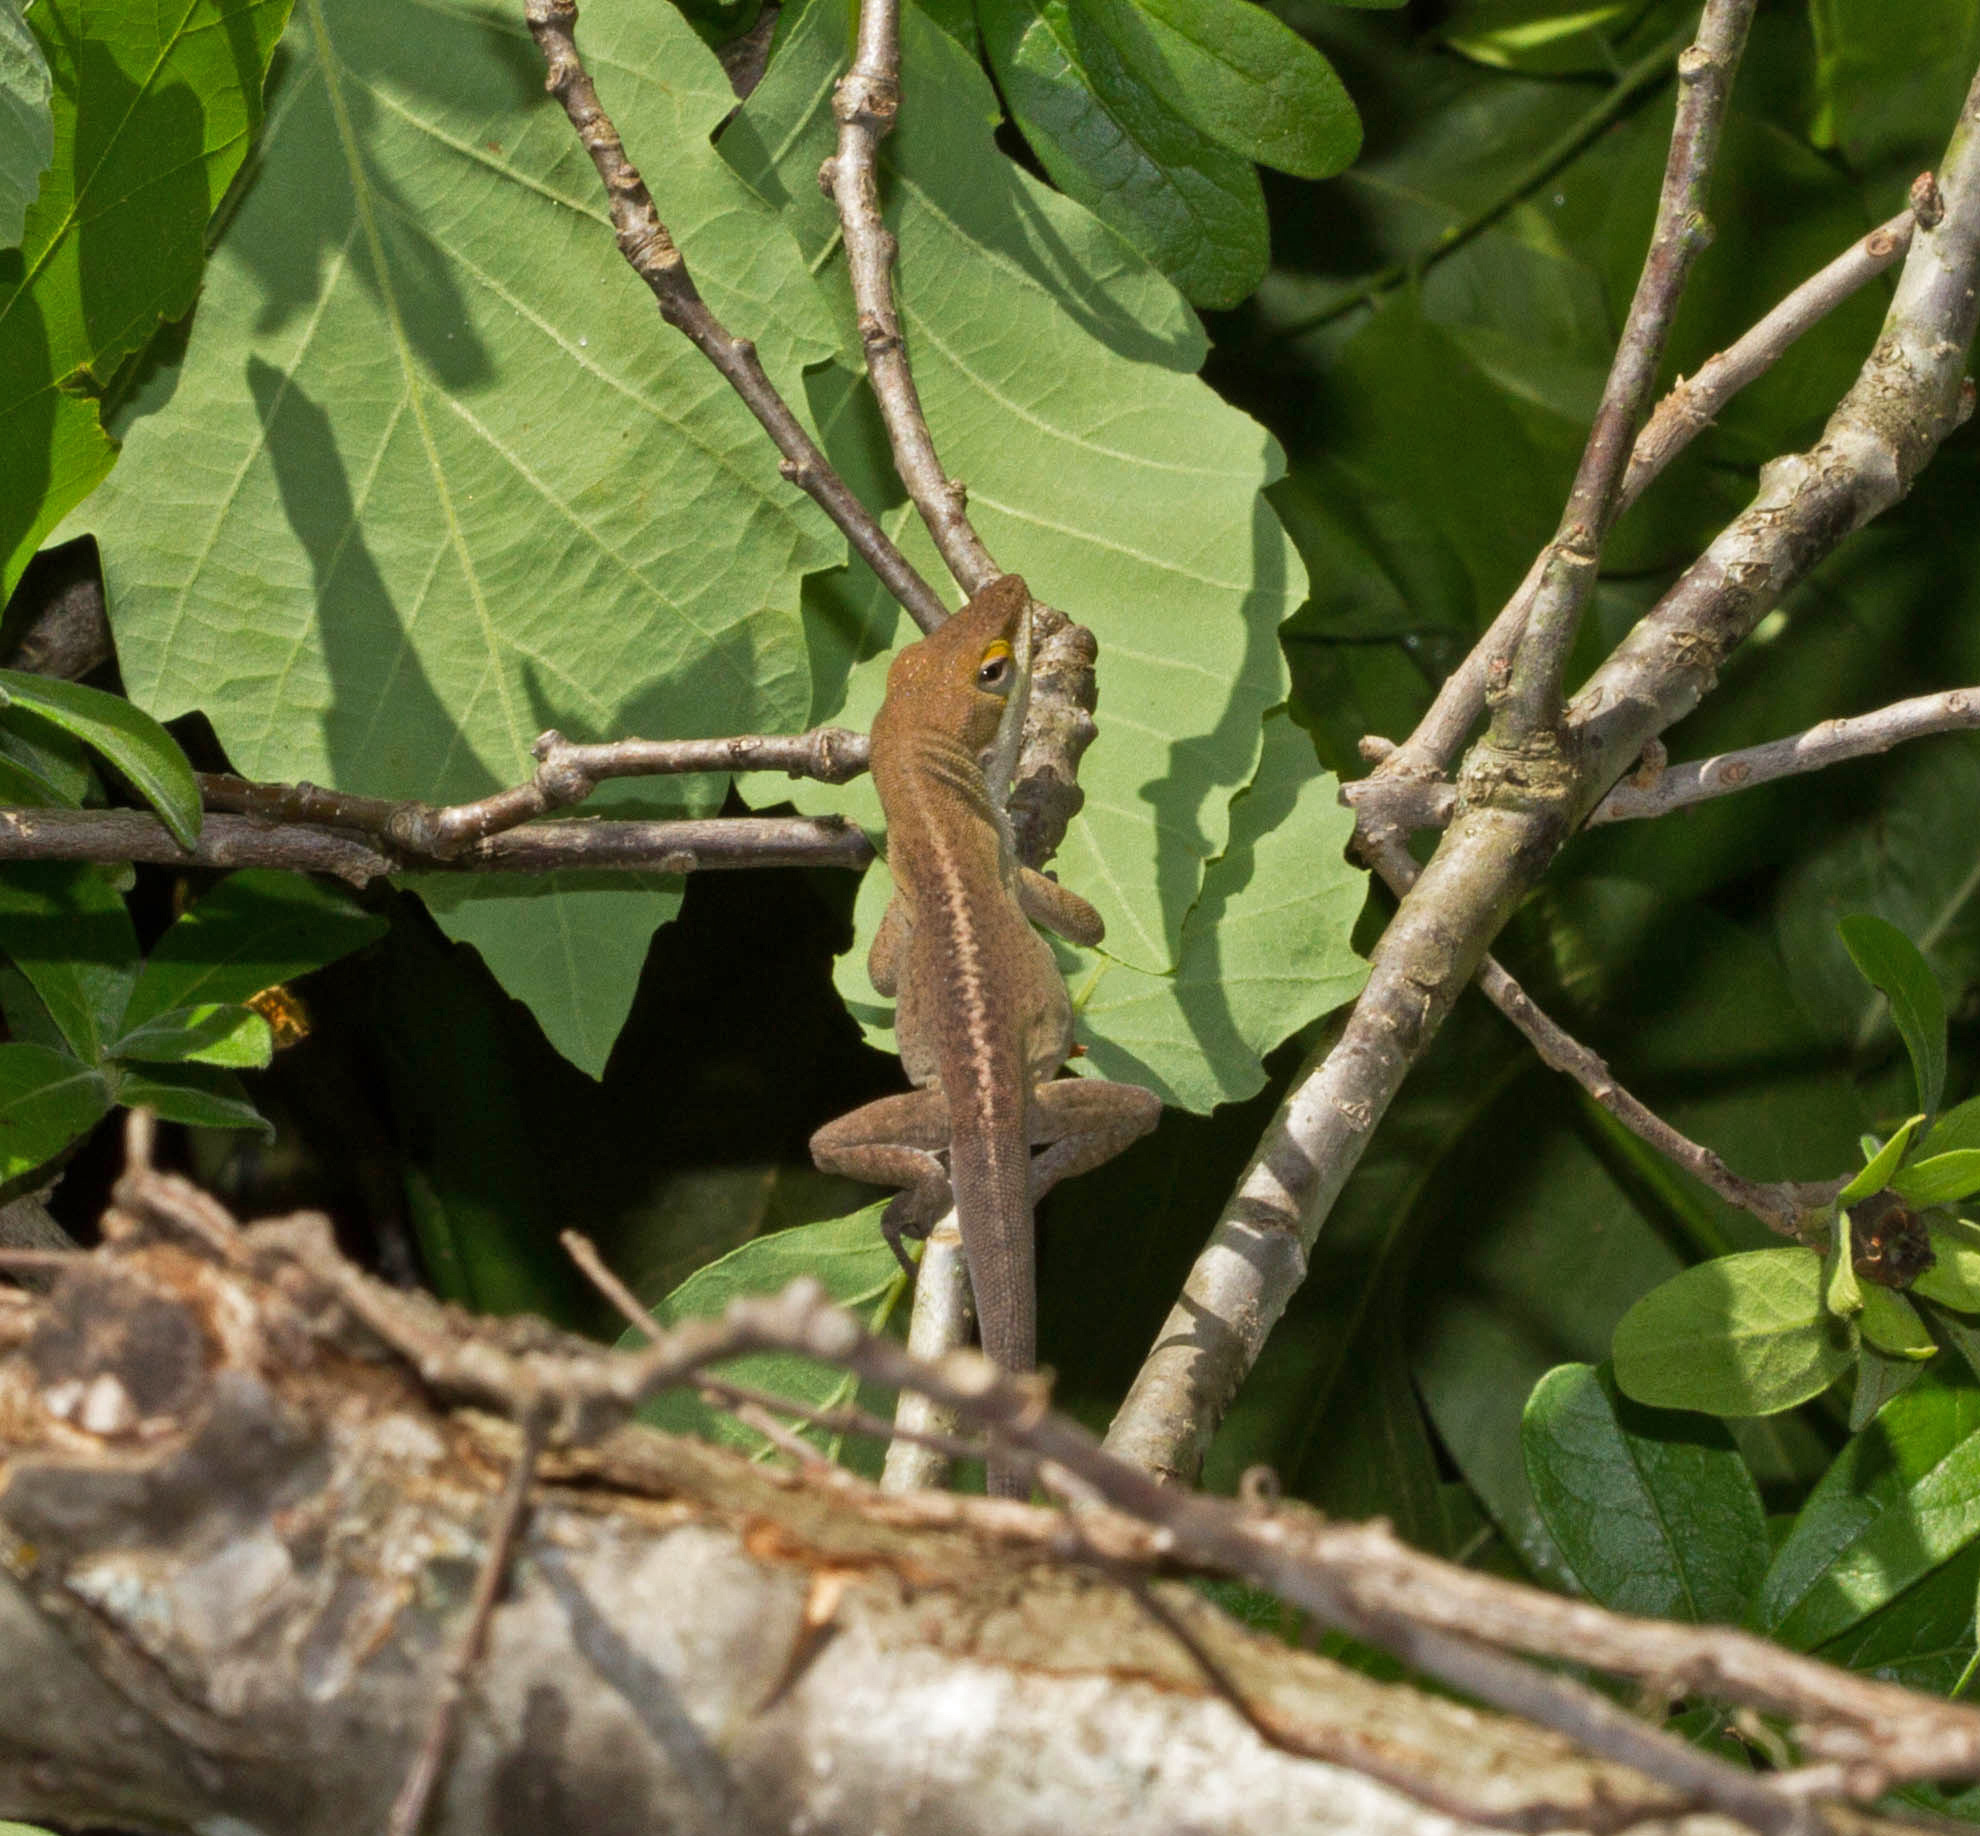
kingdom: Animalia
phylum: Chordata
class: Squamata
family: Dactyloidae
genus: Anolis
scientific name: Anolis carolinensis
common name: Green anole
